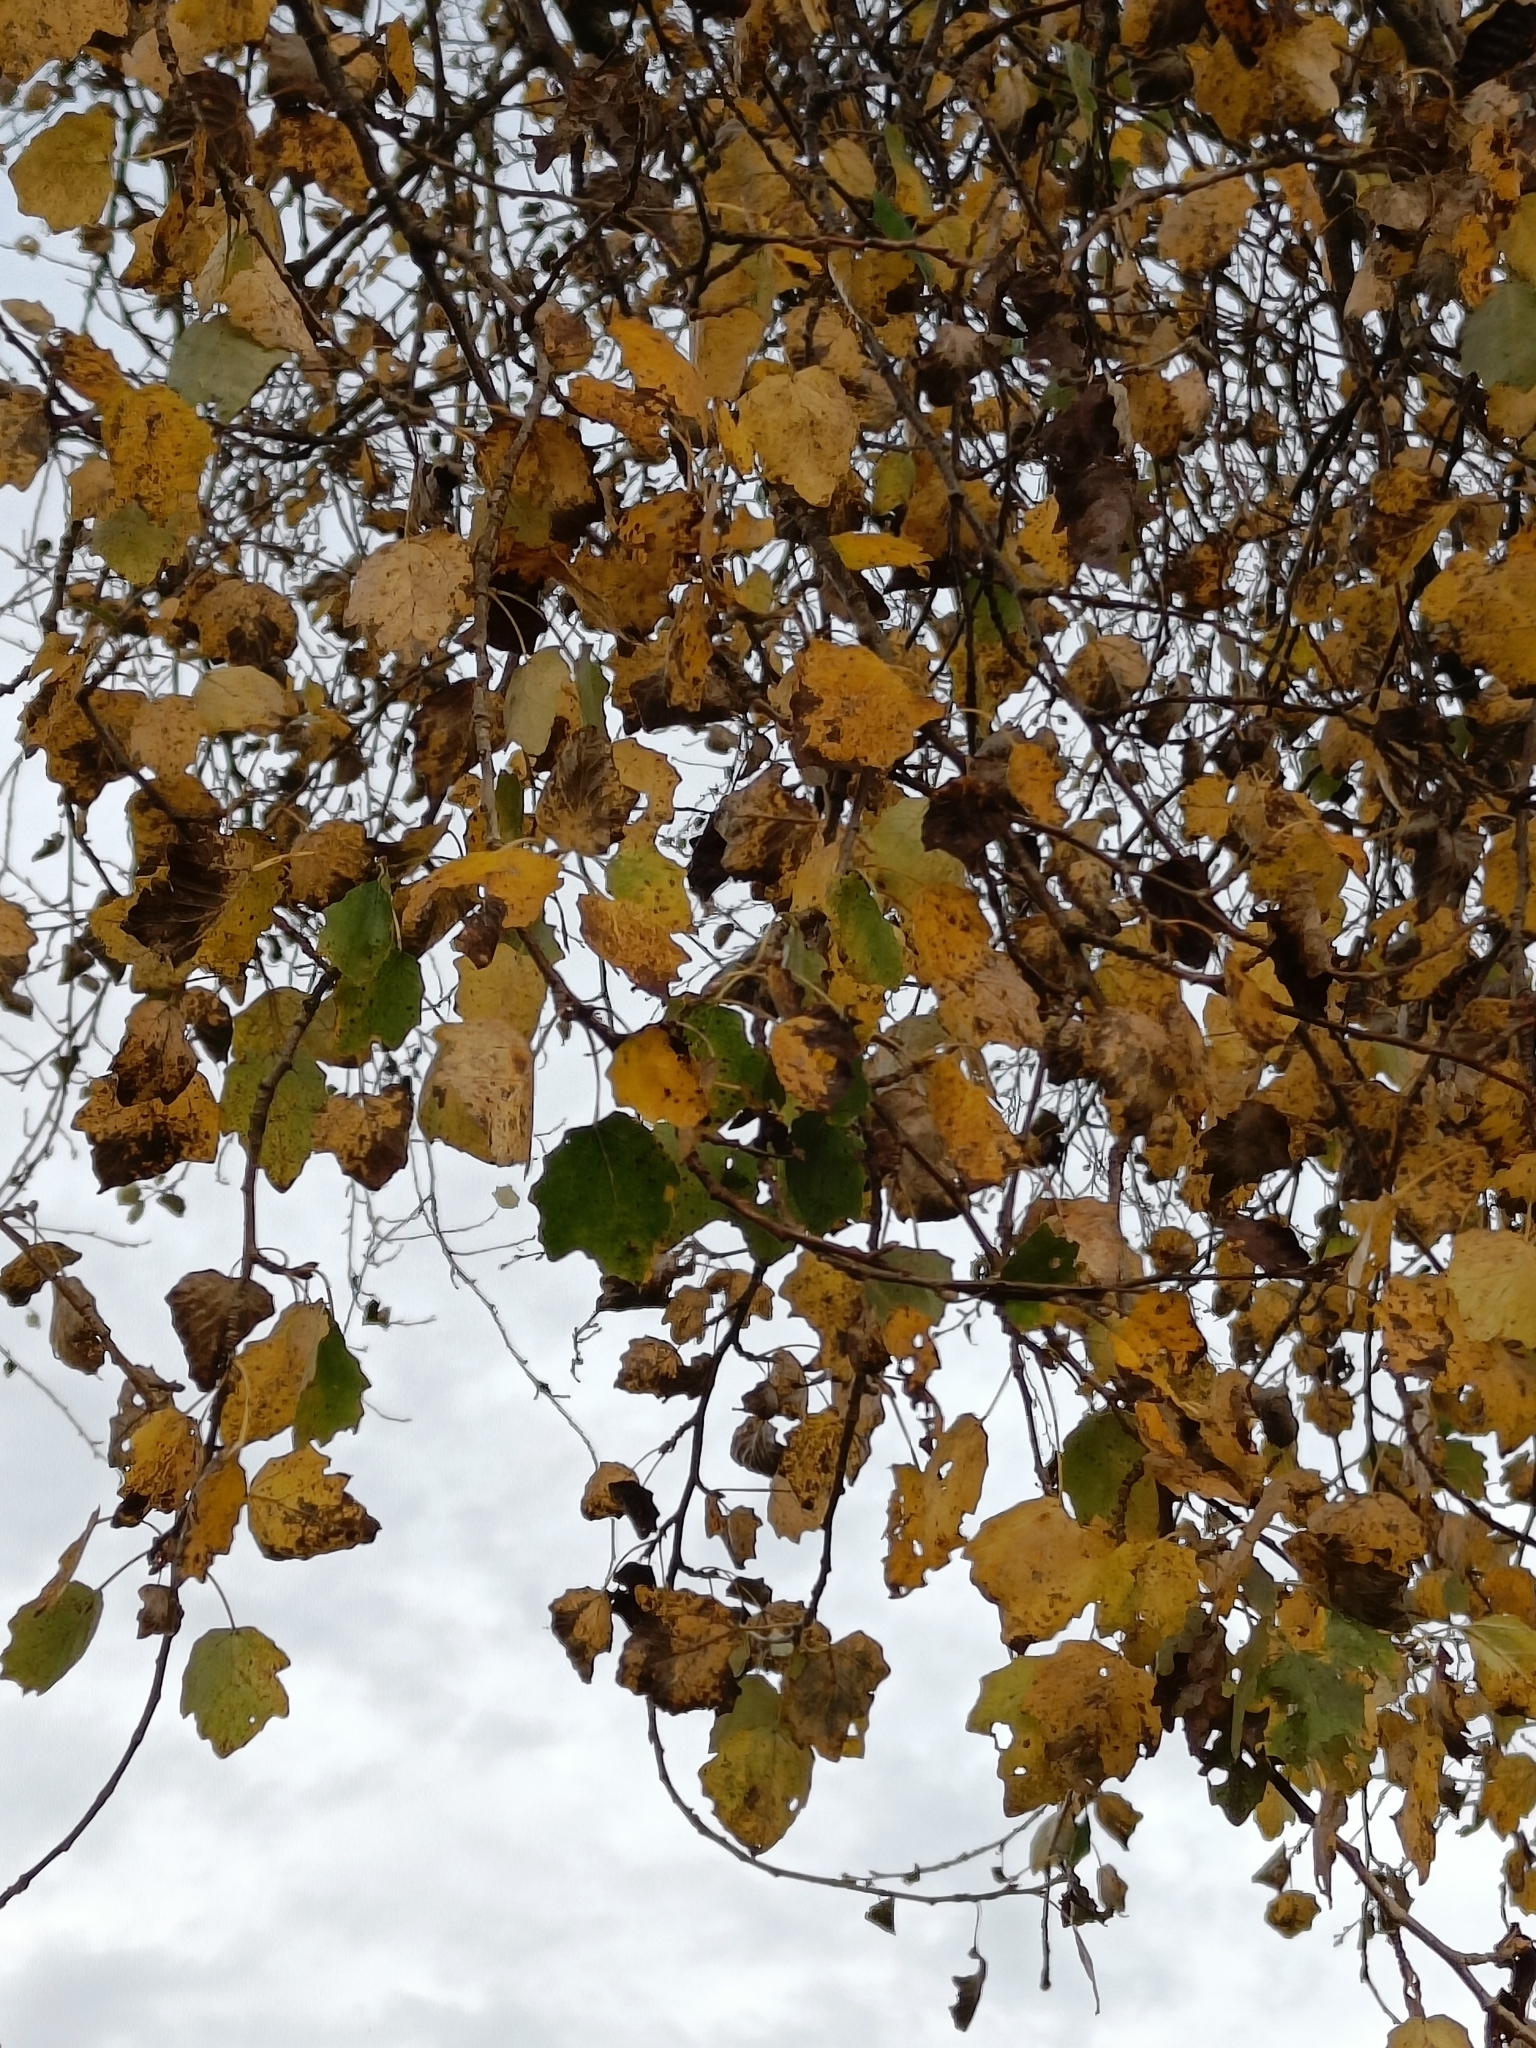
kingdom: Plantae
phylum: Tracheophyta
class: Magnoliopsida
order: Malpighiales
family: Salicaceae
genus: Populus
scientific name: Populus alba
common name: White poplar
